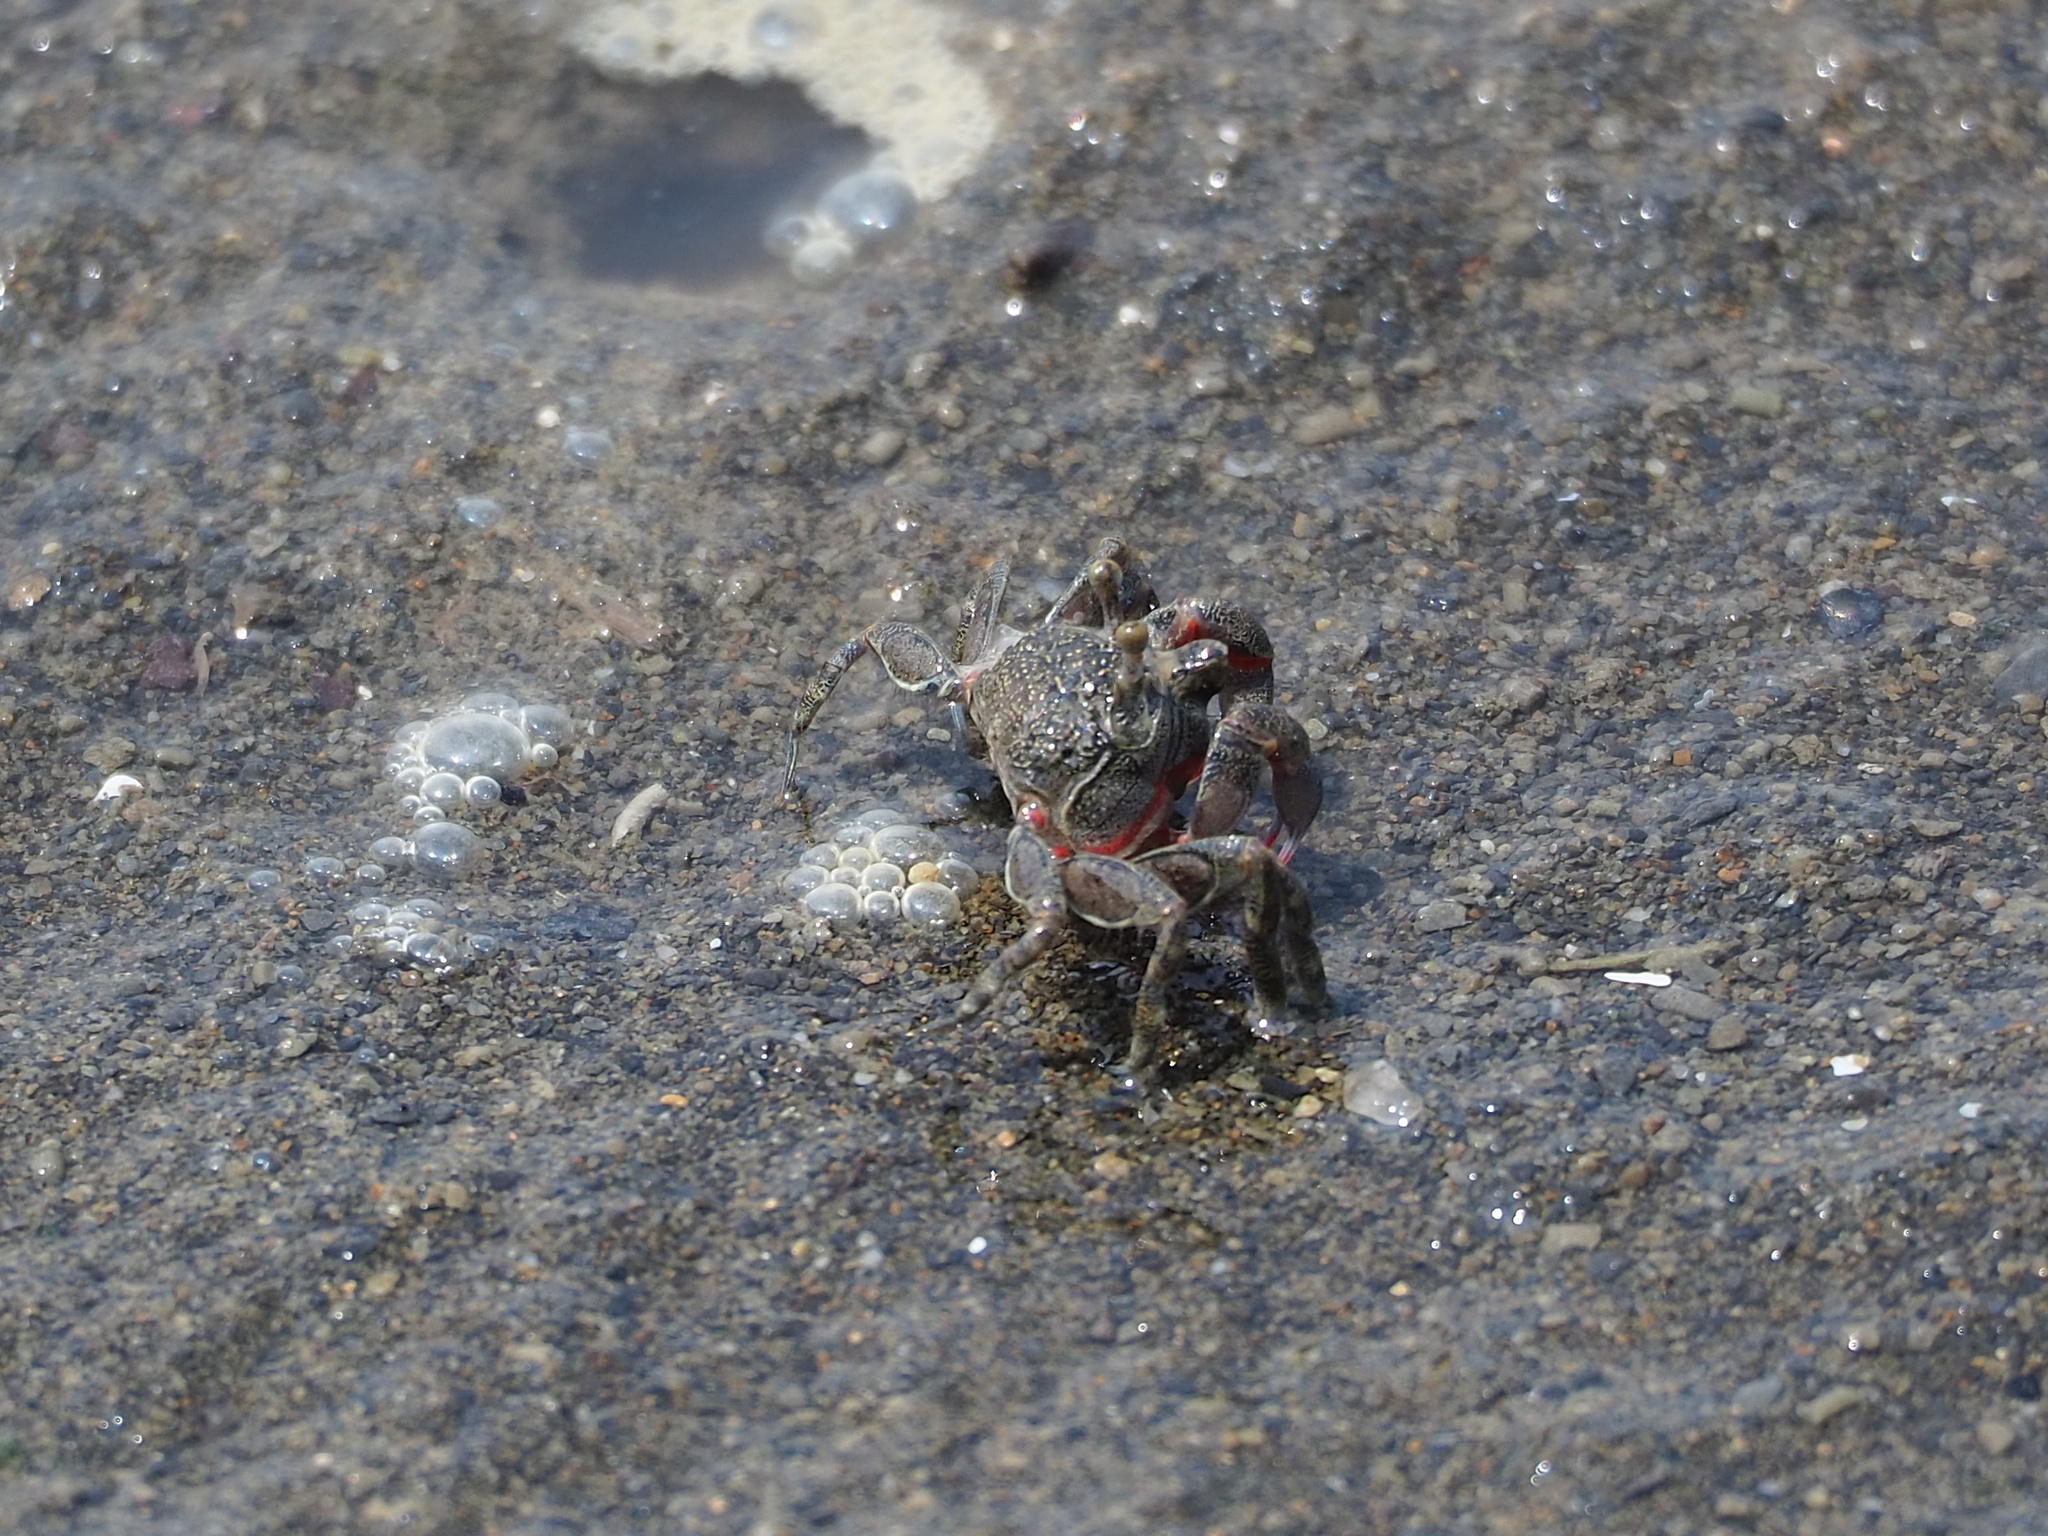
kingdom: Animalia
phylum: Arthropoda
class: Malacostraca
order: Decapoda
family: Dotillidae
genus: Scopimera
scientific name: Scopimera longidactyla
